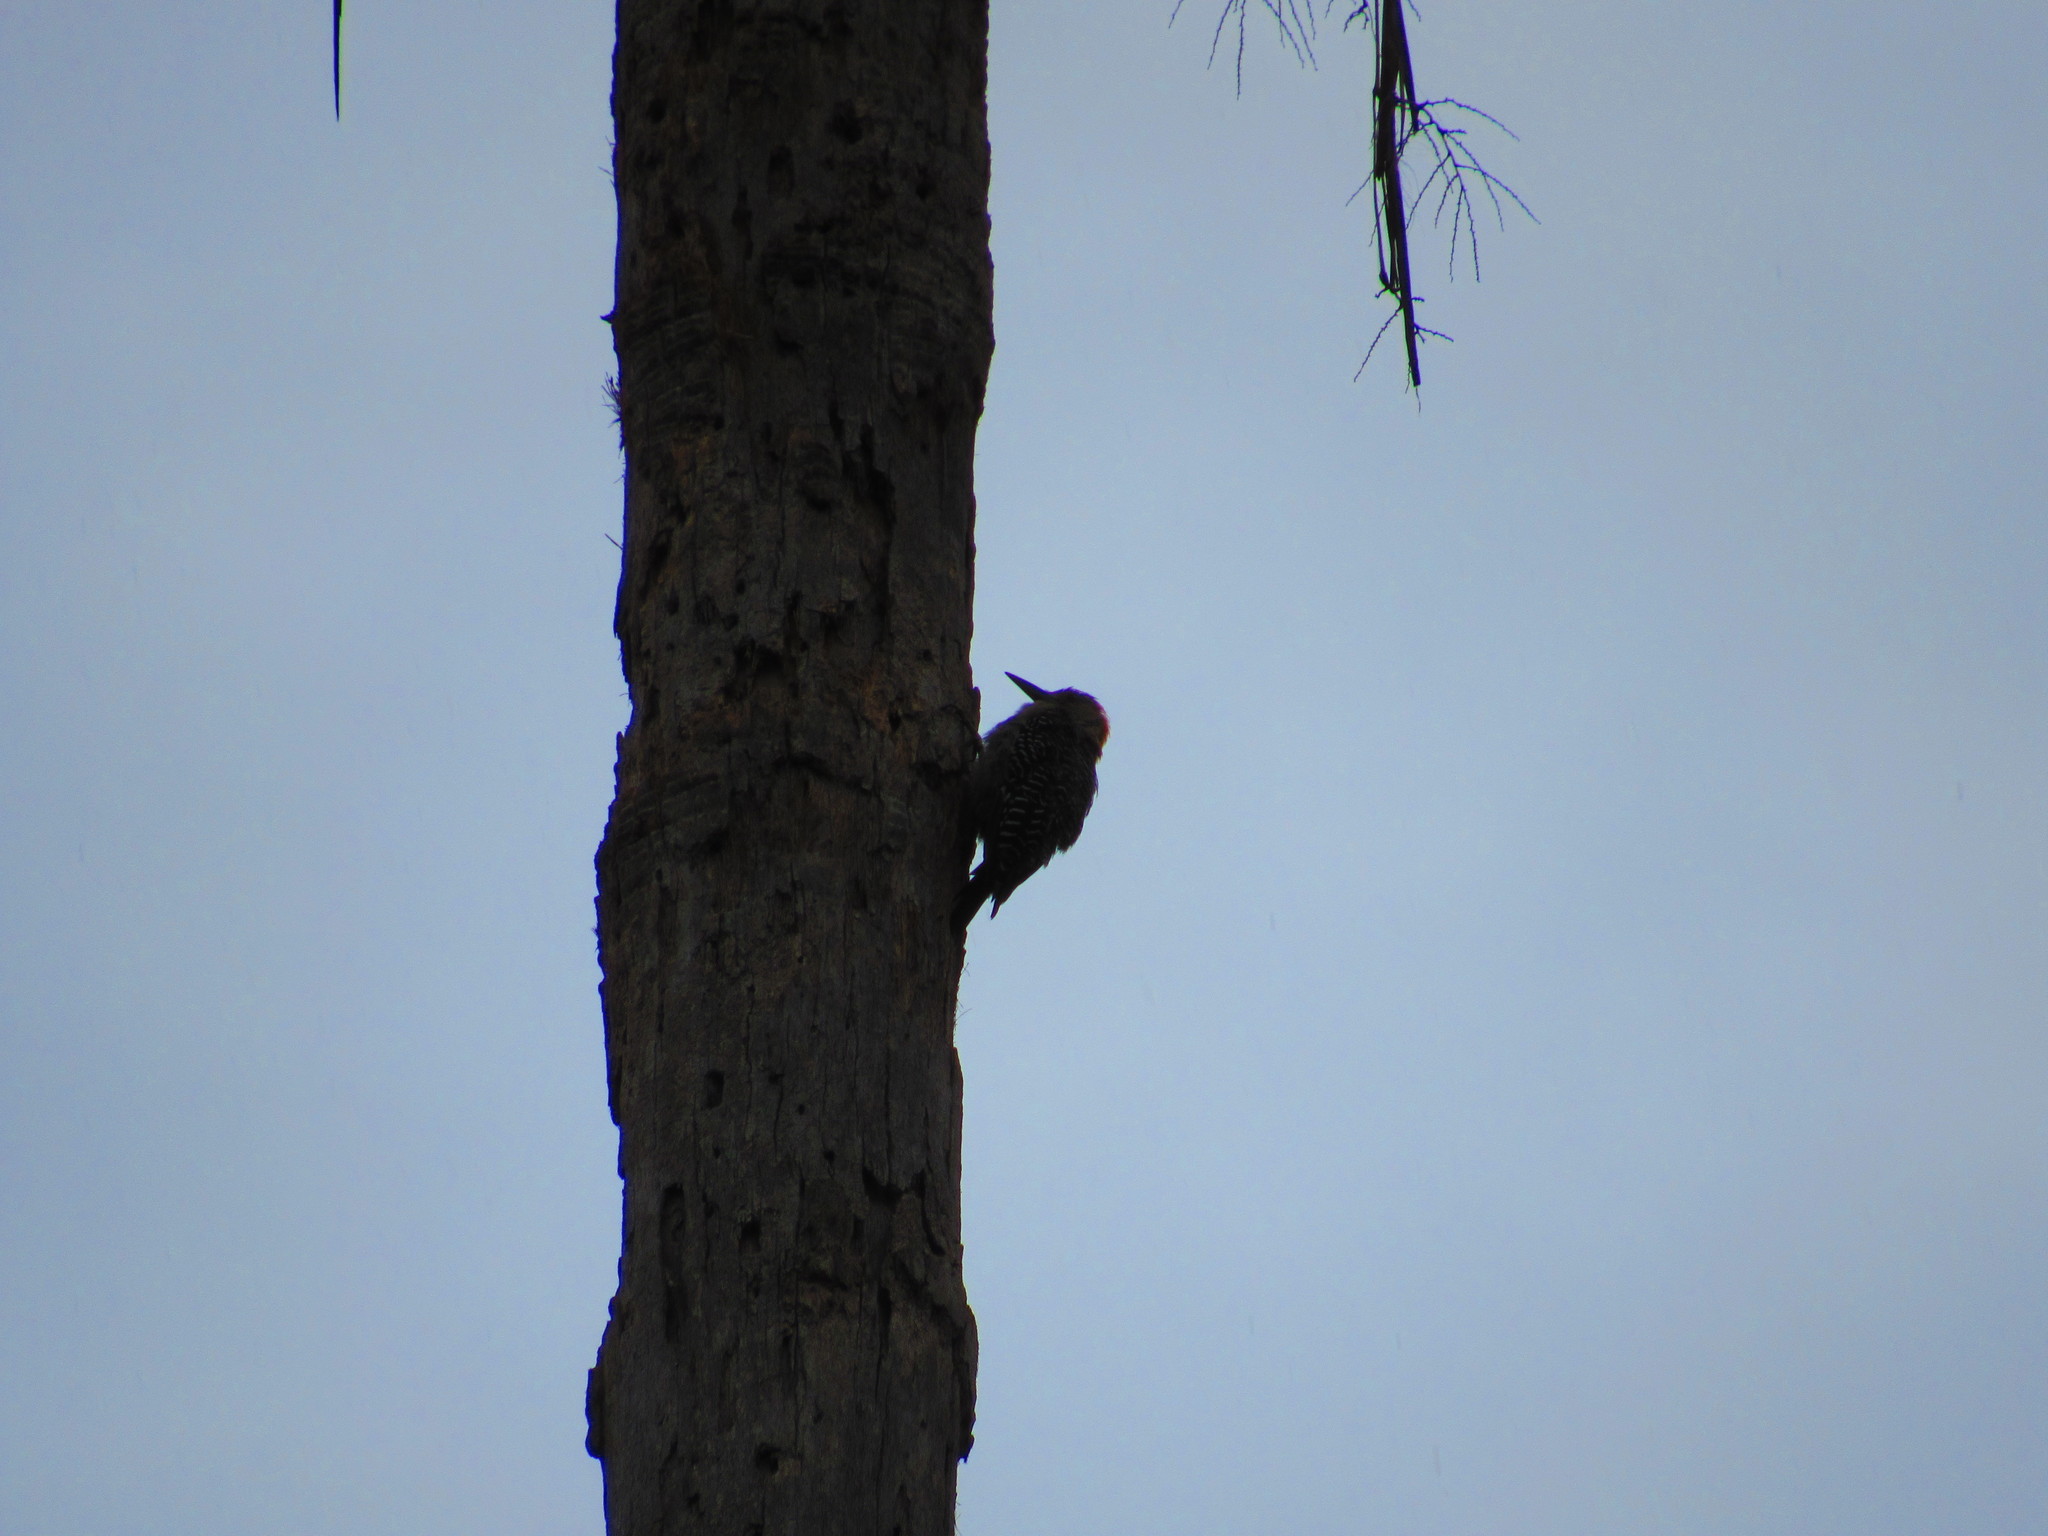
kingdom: Animalia
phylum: Chordata
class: Aves
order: Piciformes
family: Picidae
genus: Melanerpes
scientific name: Melanerpes aurifrons
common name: Golden-fronted woodpecker
